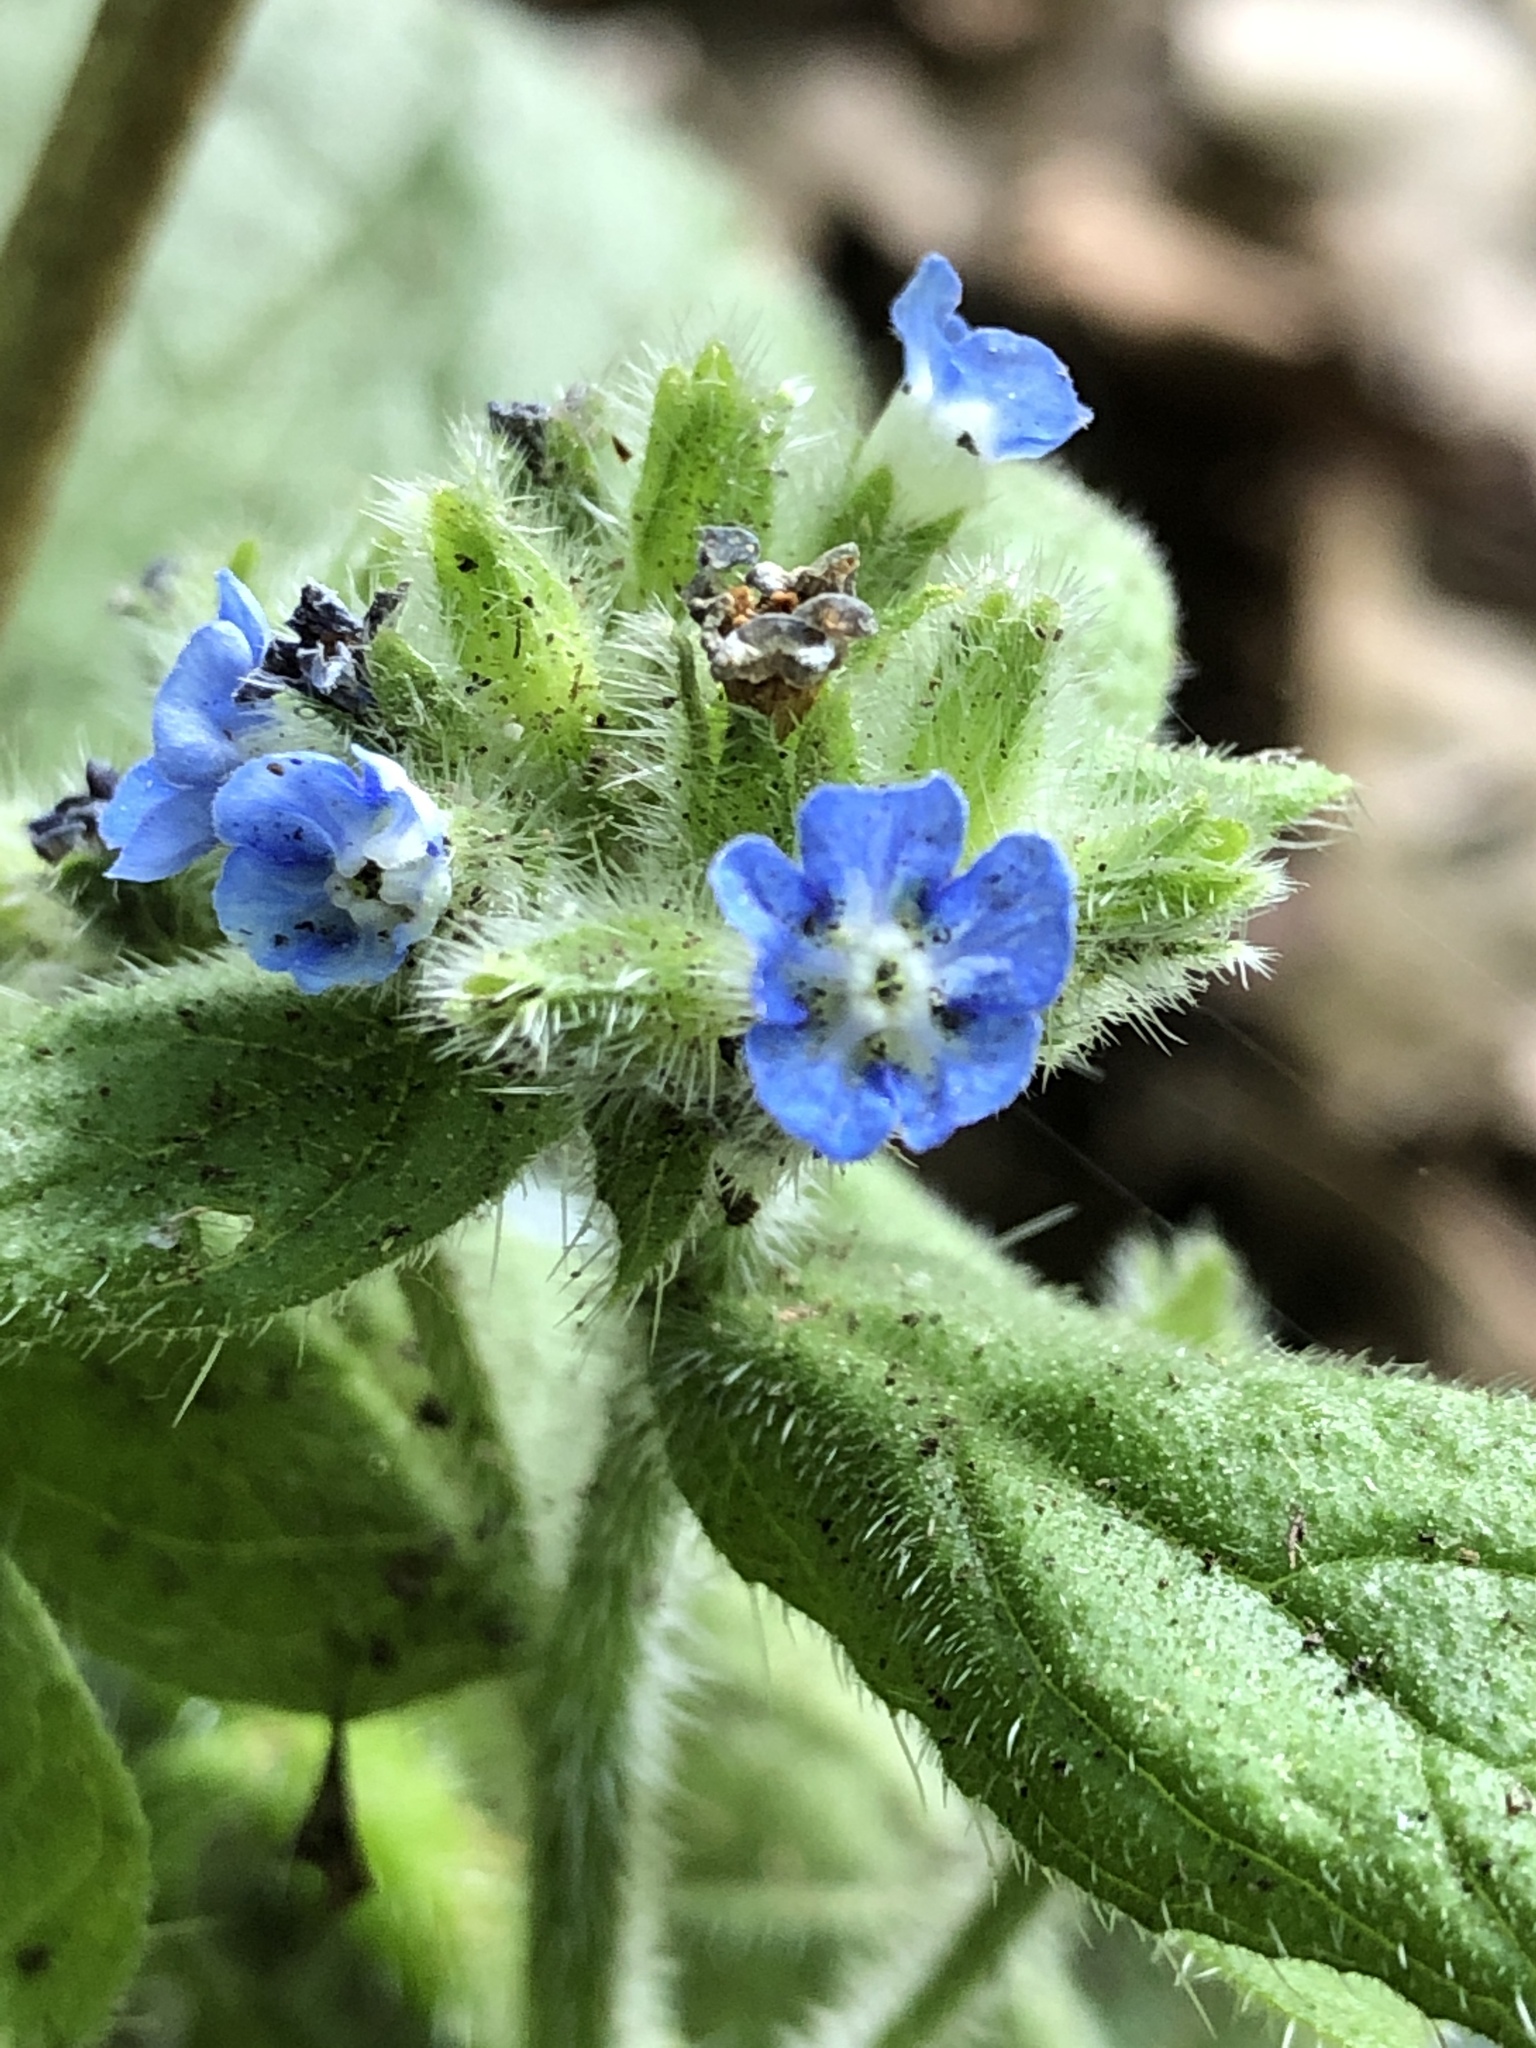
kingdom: Plantae
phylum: Tracheophyta
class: Magnoliopsida
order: Boraginales
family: Boraginaceae
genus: Pentaglottis
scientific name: Pentaglottis sempervirens
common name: Green alkanet
